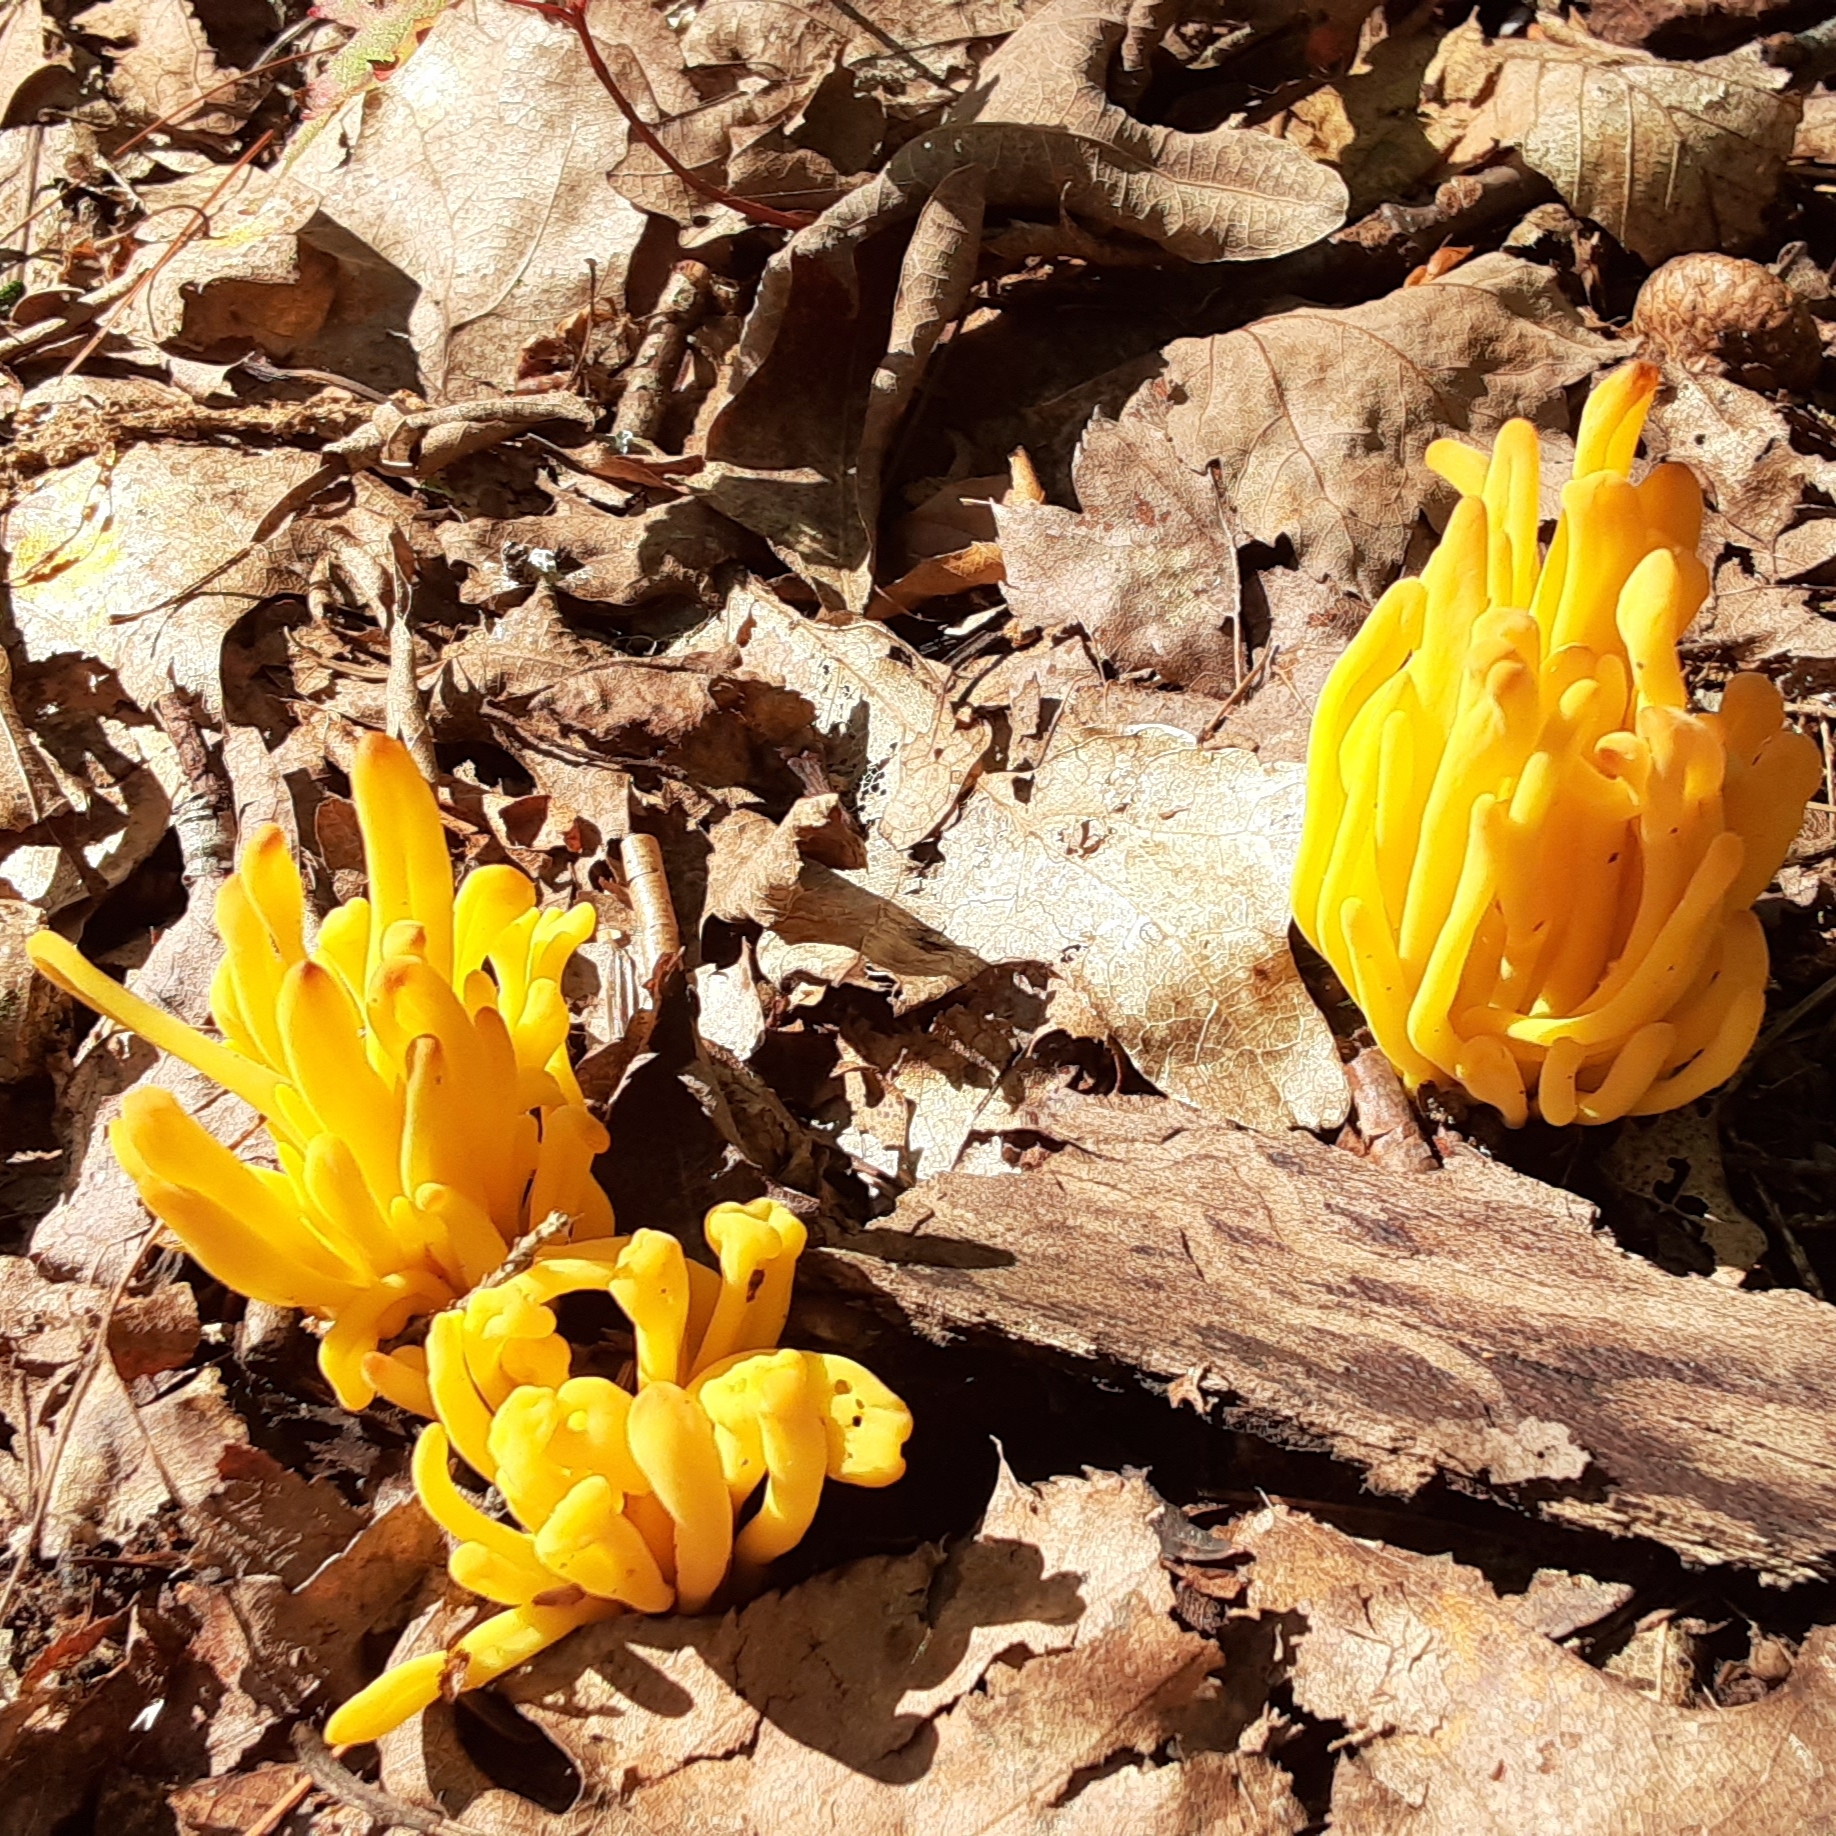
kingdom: Fungi
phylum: Basidiomycota
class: Agaricomycetes
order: Agaricales
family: Clavariaceae
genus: Clavulinopsis
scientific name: Clavulinopsis fusiformis
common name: Golden spindles
